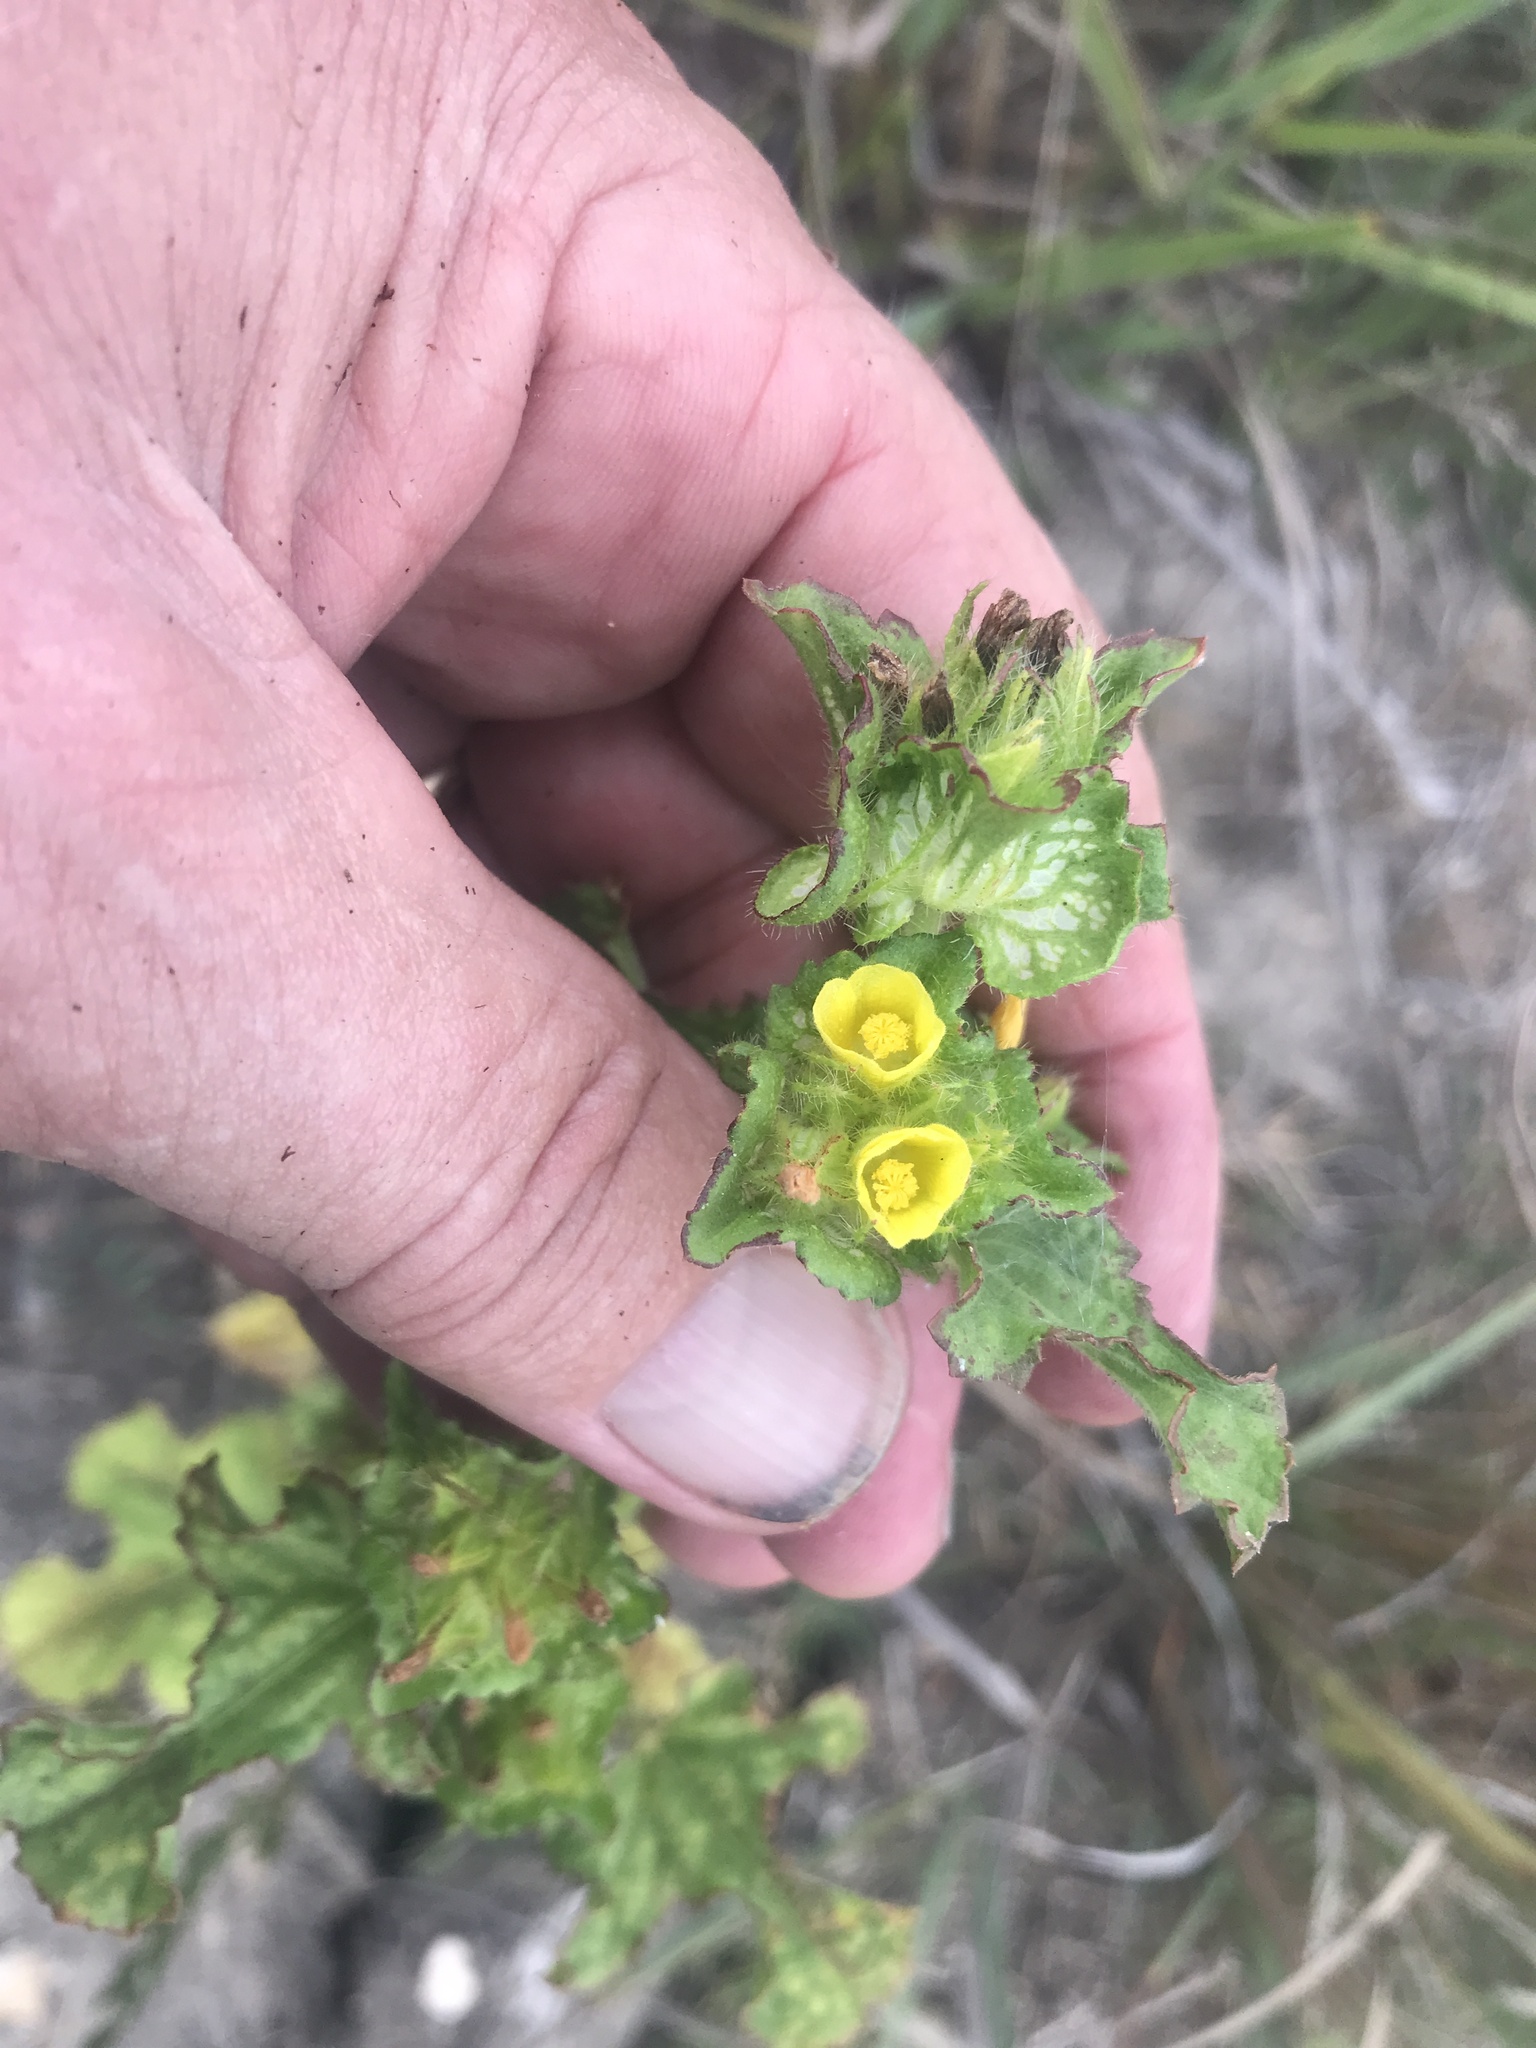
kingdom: Plantae
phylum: Tracheophyta
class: Magnoliopsida
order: Malvales
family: Malvaceae
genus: Malachra
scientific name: Malachra capitata
